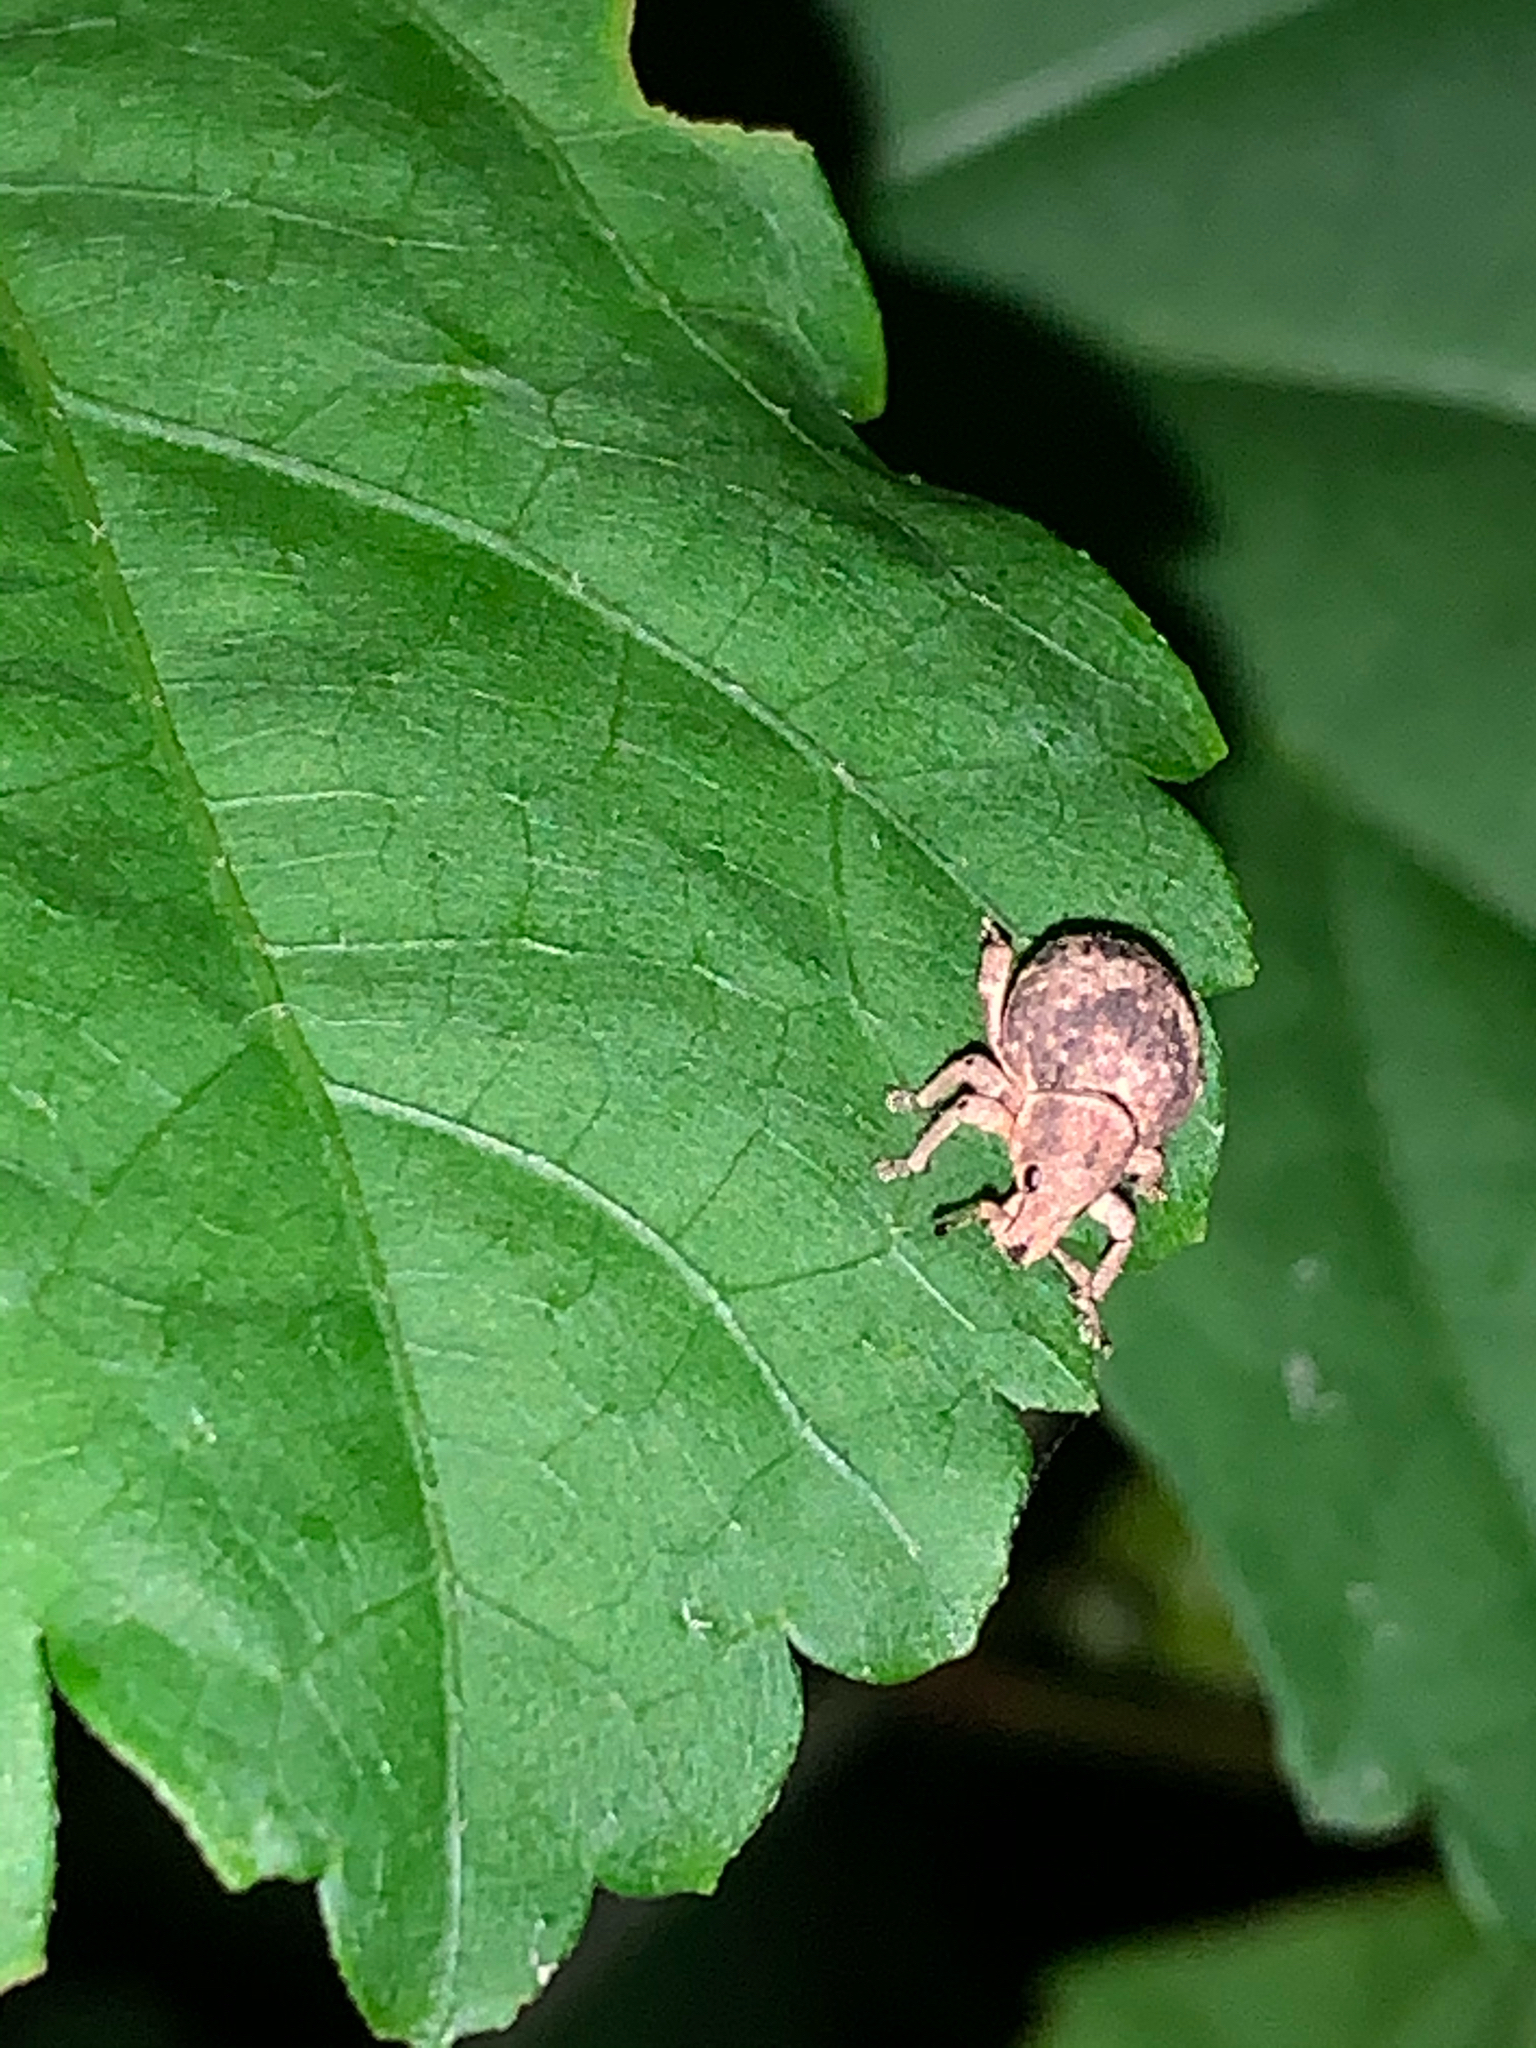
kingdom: Animalia
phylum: Arthropoda
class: Insecta
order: Coleoptera
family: Curculionidae
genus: Pseudocneorhinus
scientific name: Pseudocneorhinus bifasciatus
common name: Two-banded japanese weevil
